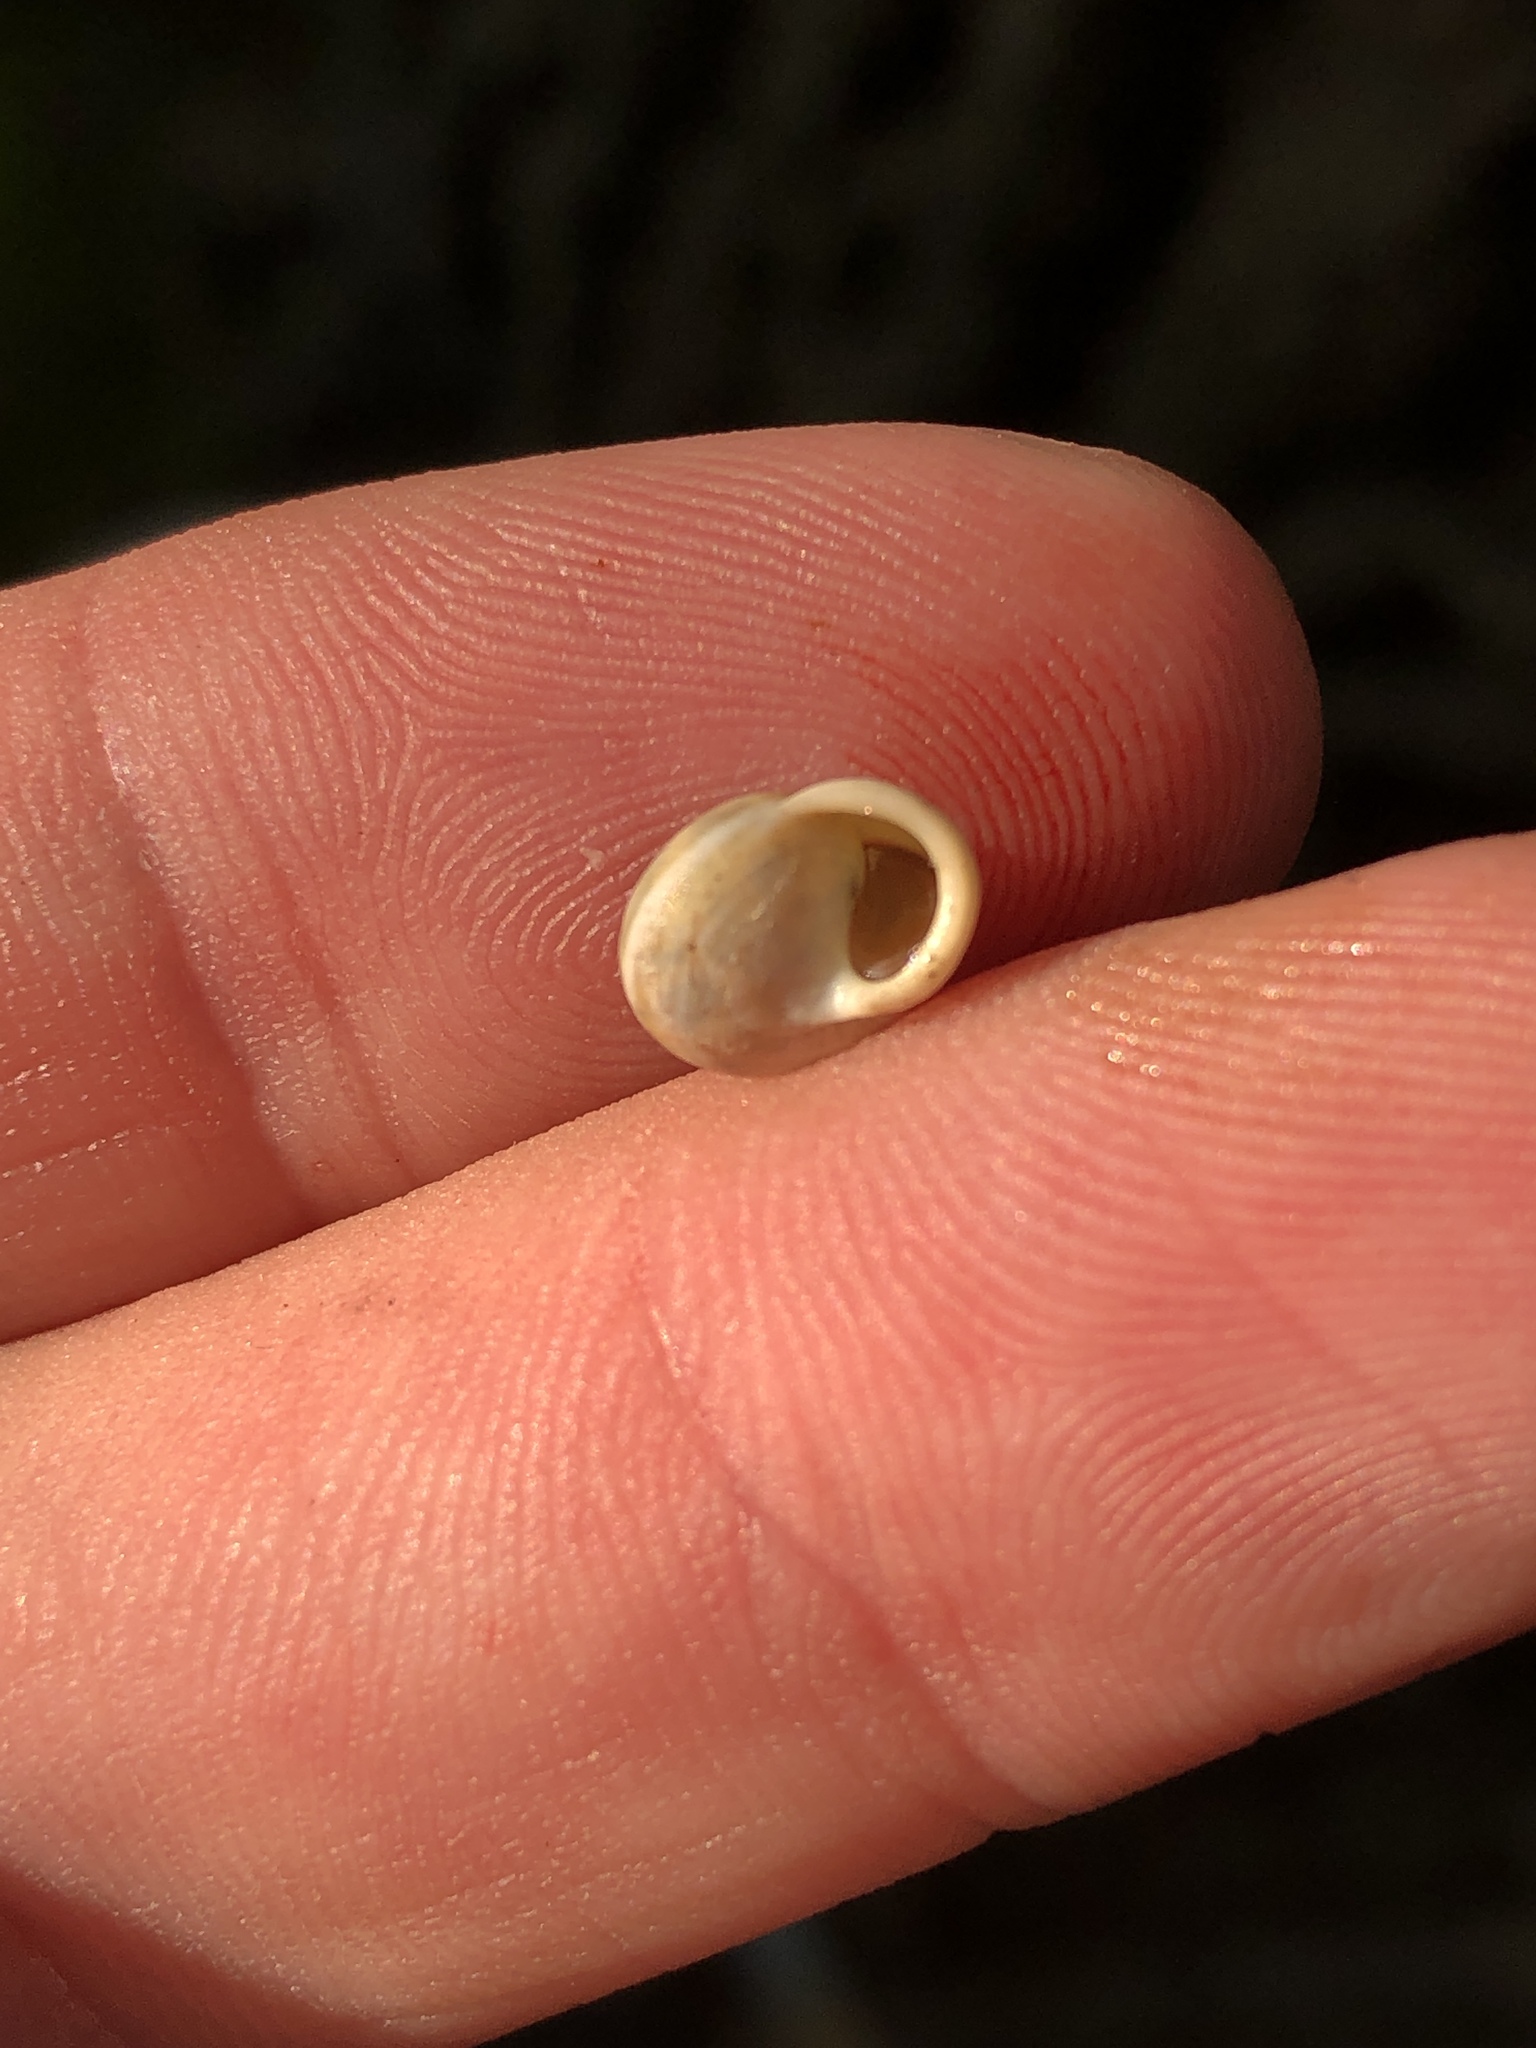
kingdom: Animalia
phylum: Mollusca
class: Gastropoda
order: Cycloneritida
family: Helicinidae
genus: Helicina
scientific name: Helicina orbiculata
